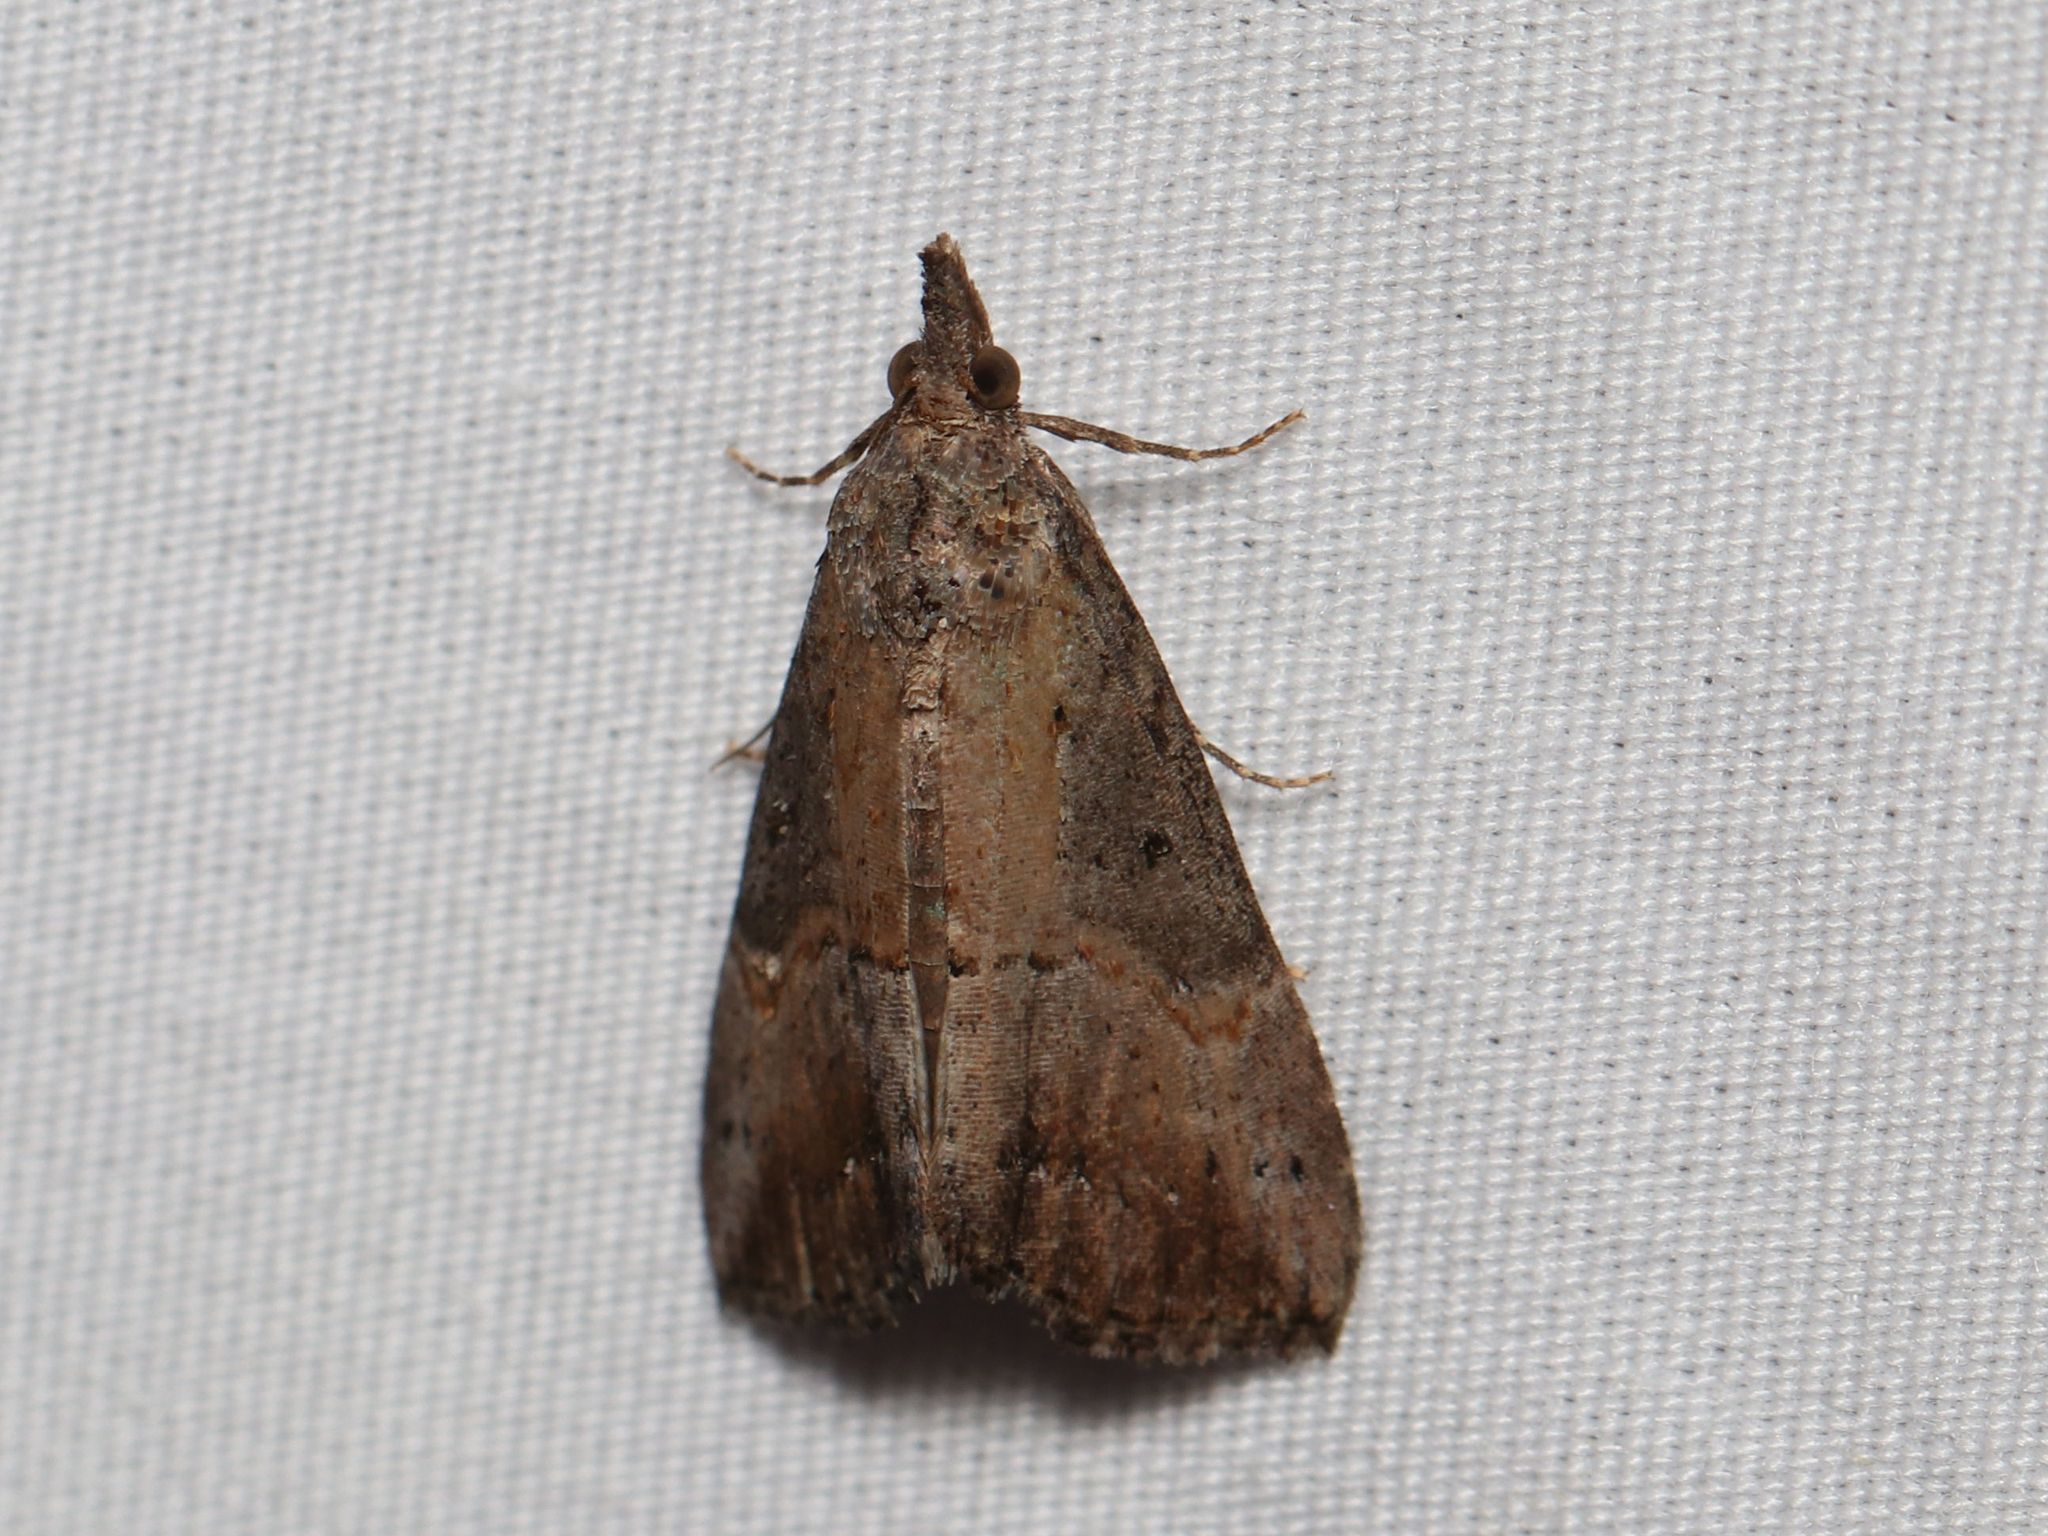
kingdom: Animalia
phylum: Arthropoda
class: Insecta
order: Lepidoptera
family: Erebidae
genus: Hypena
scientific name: Hypena scabra
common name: Green cloverworm
